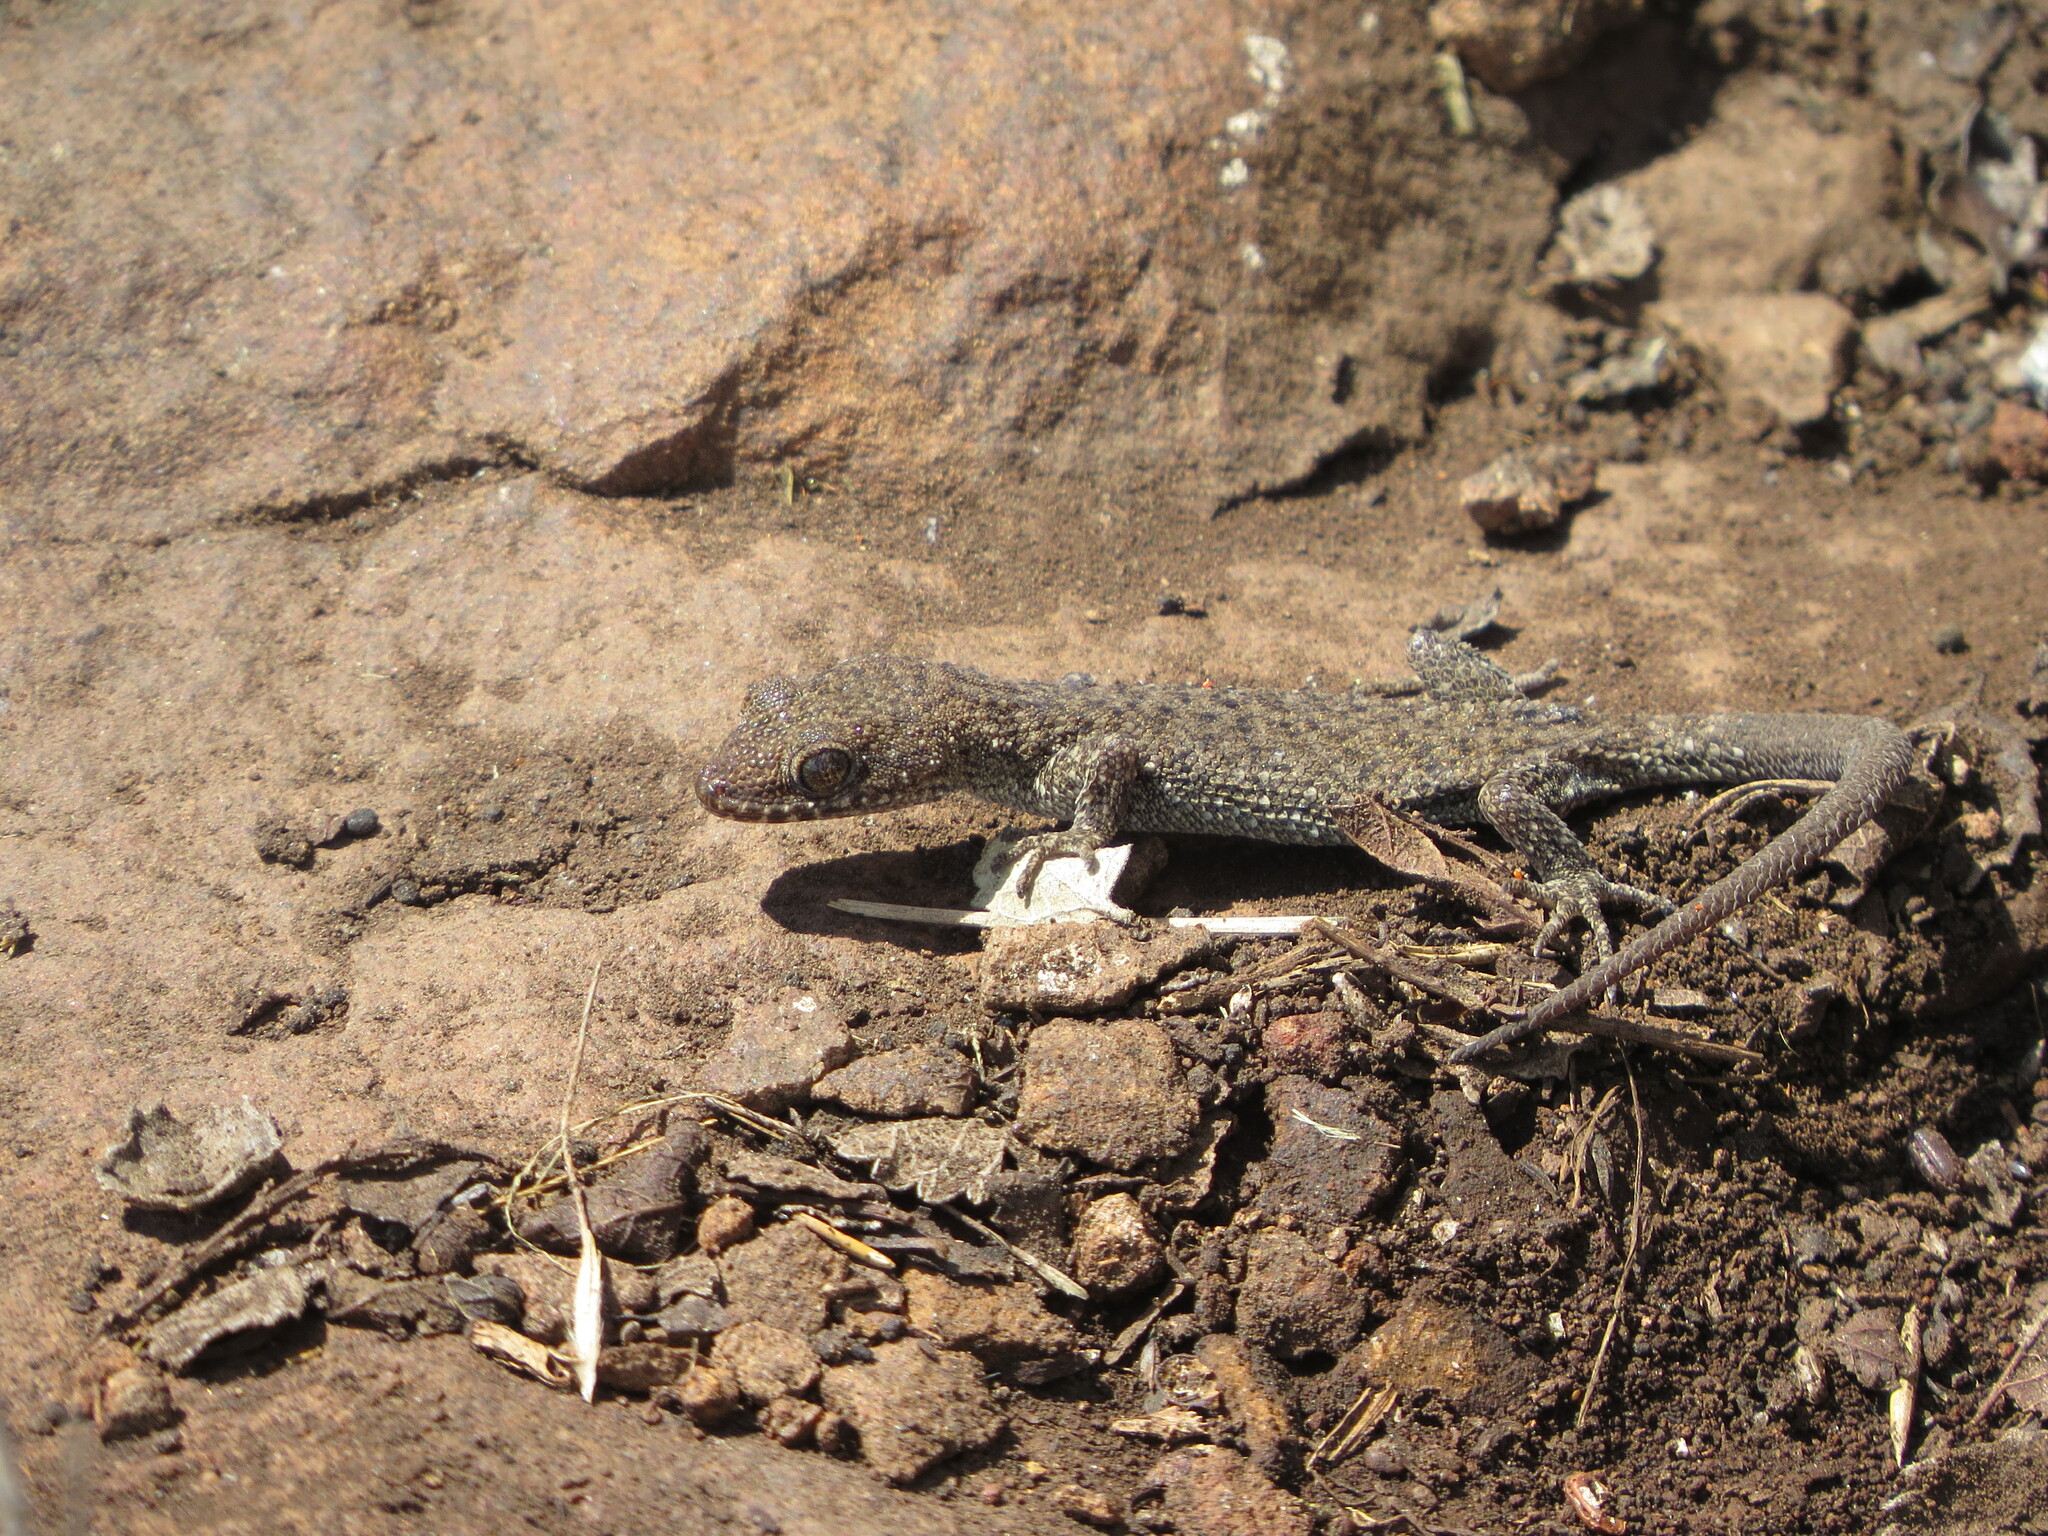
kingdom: Animalia
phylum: Chordata
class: Squamata
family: Phyllodactylidae
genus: Homonota
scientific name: Homonota uruguayensis
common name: Uruguay marked gecko
